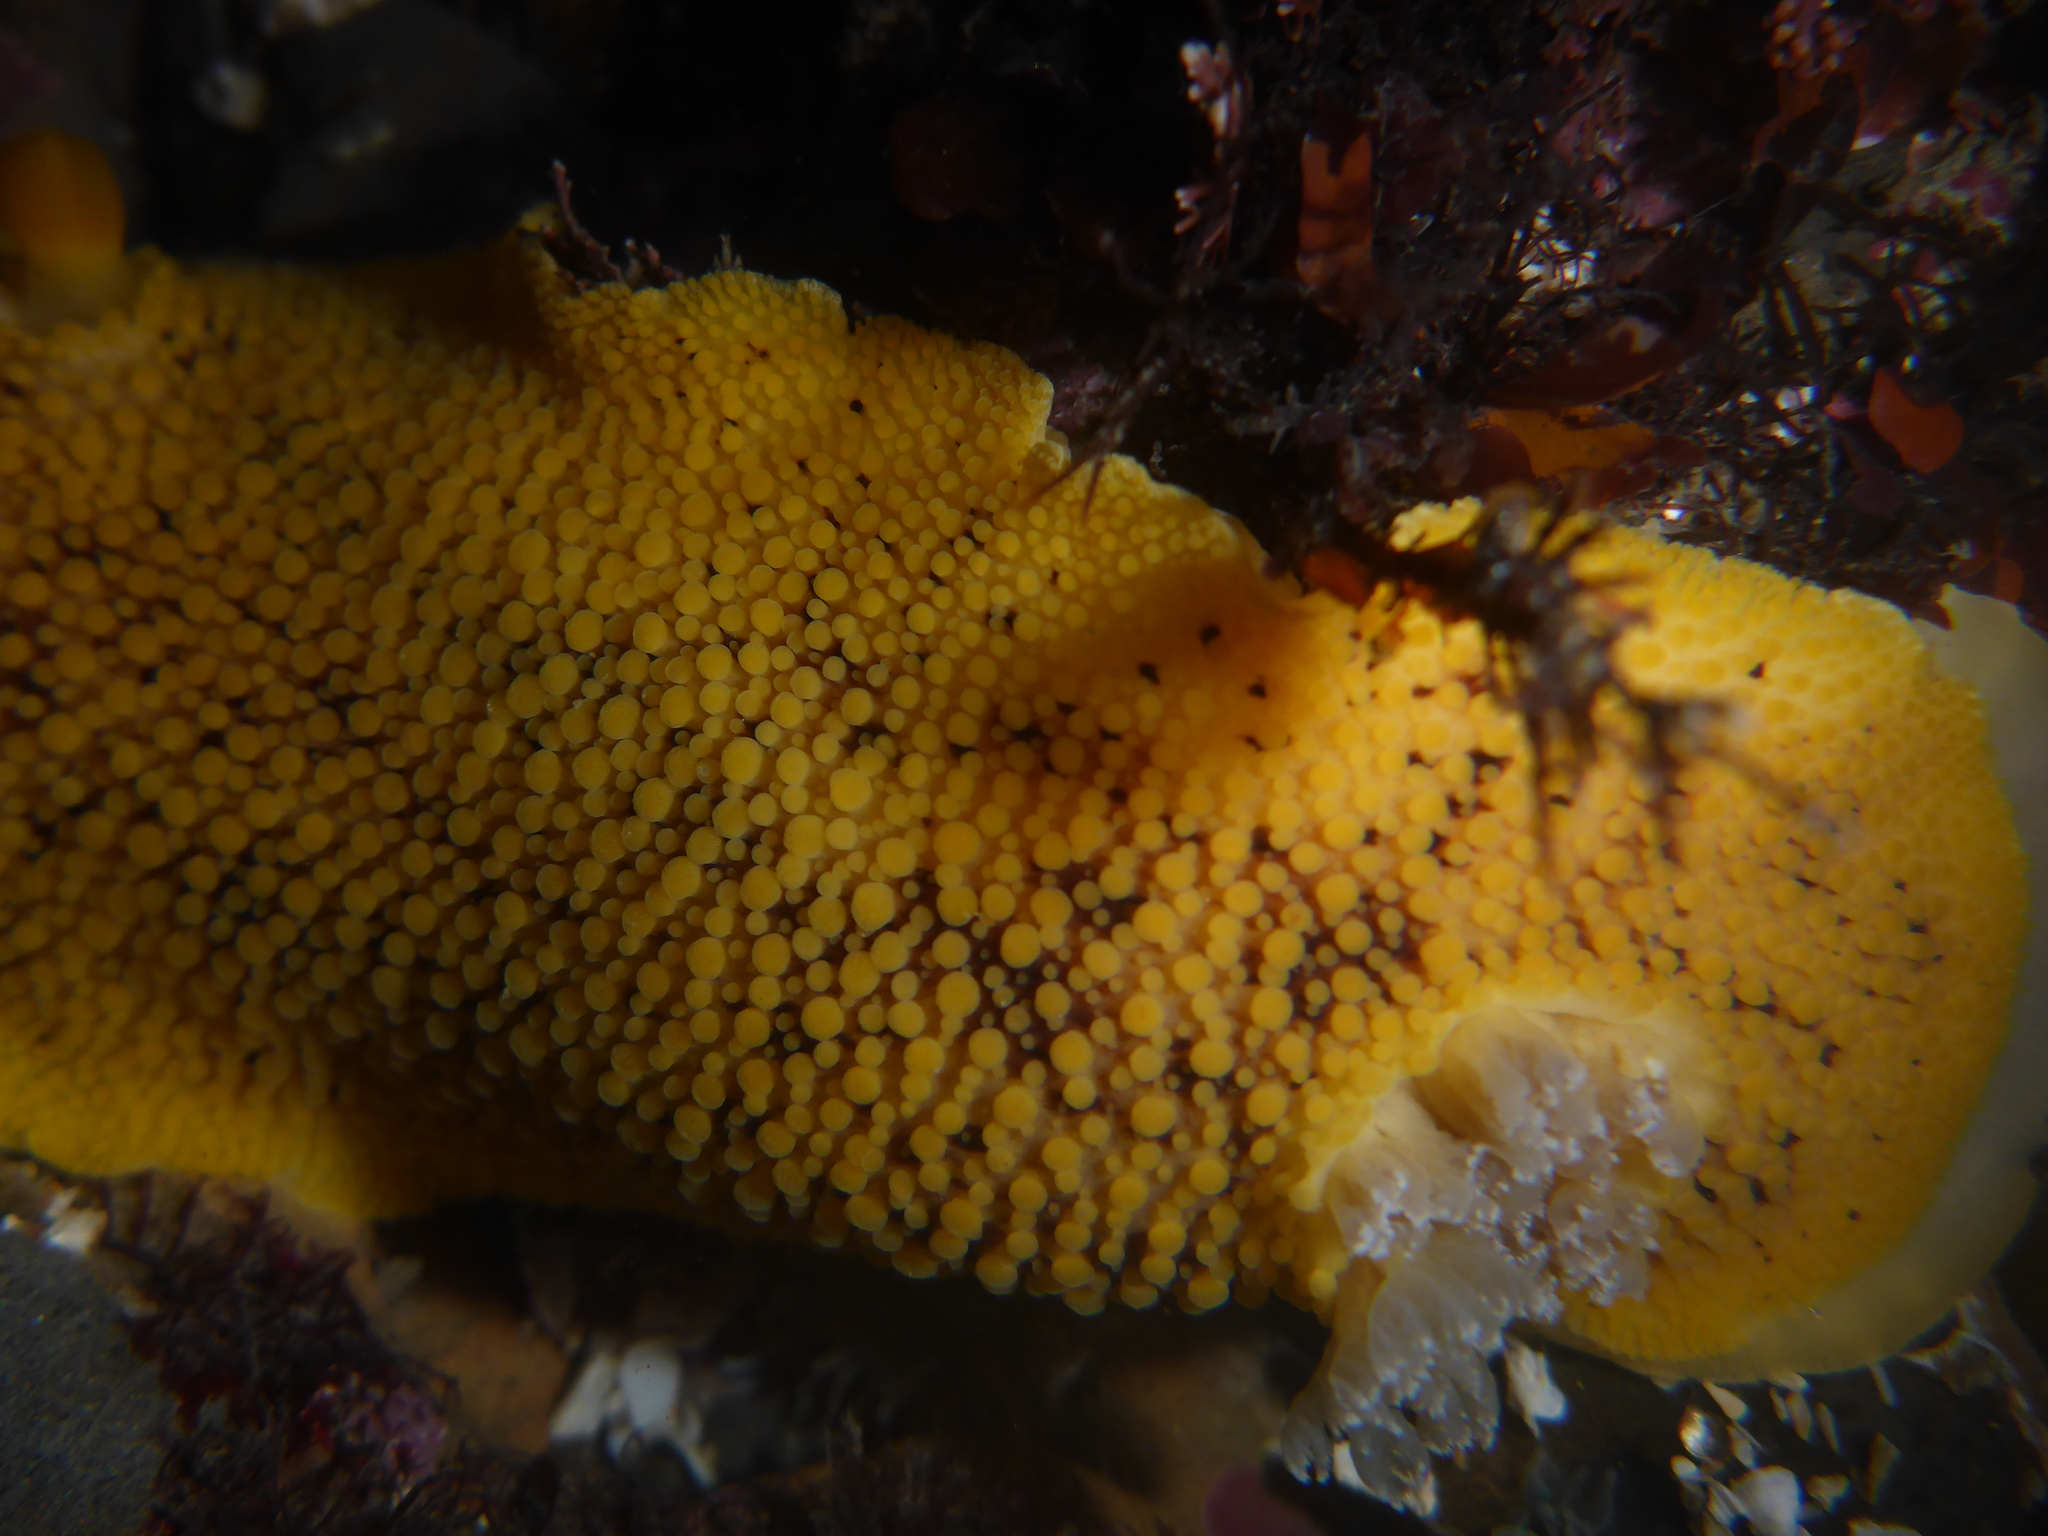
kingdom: Animalia
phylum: Mollusca
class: Gastropoda
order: Nudibranchia
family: Discodorididae
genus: Peltodoris
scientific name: Peltodoris nobilis
